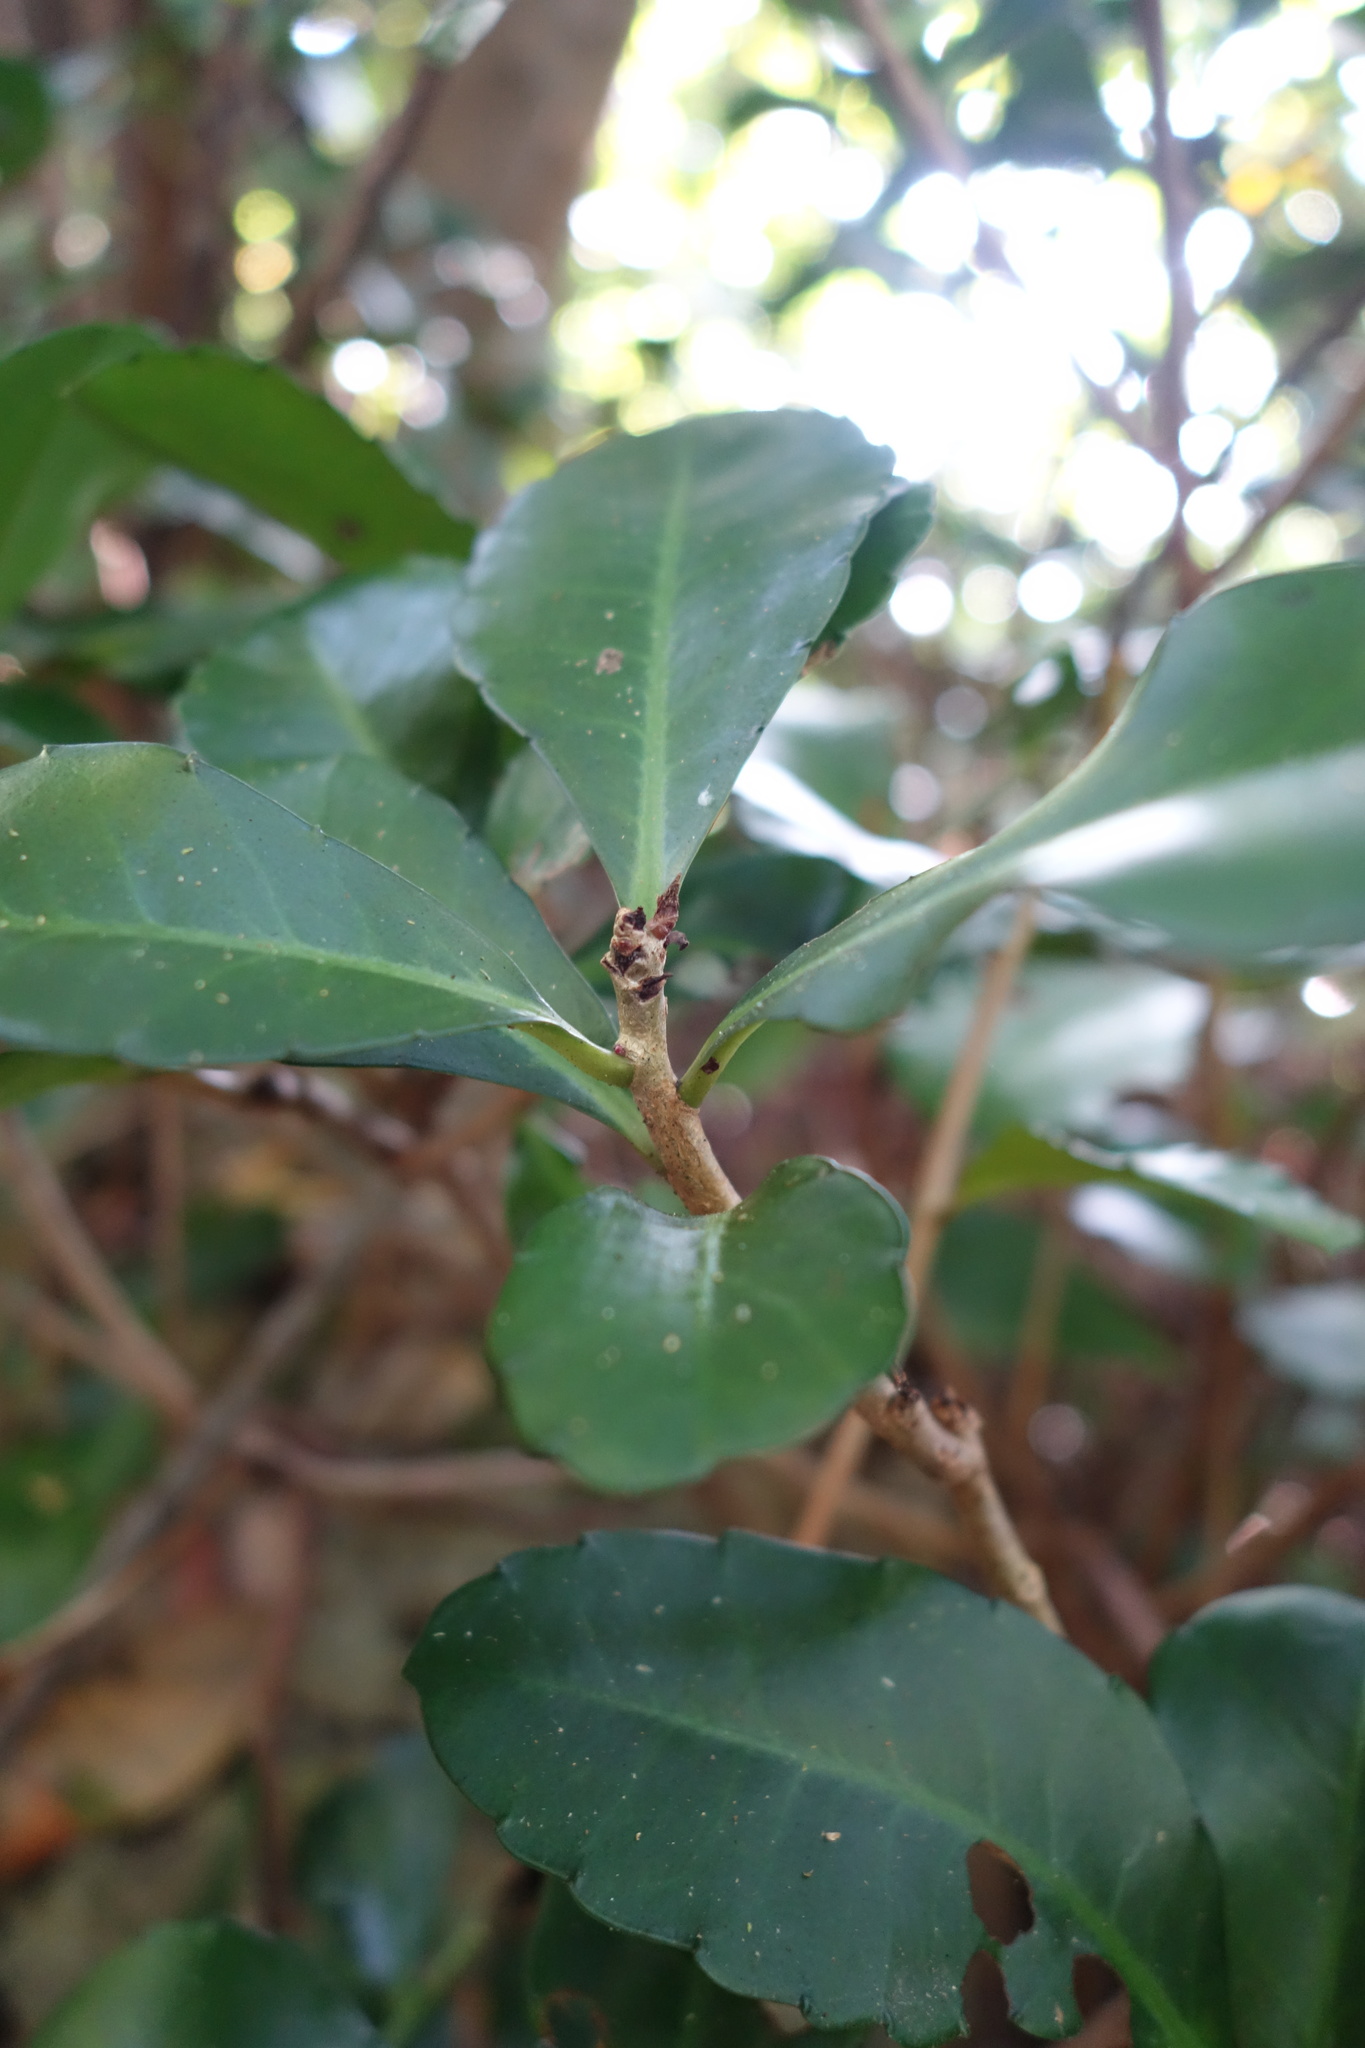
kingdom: Plantae
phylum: Tracheophyta
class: Magnoliopsida
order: Ericales
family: Primulaceae
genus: Ardisia
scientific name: Ardisia cornudentata
